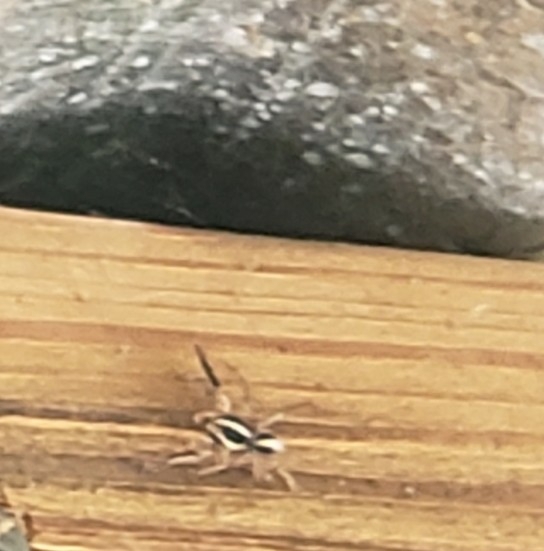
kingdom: Animalia
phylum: Arthropoda
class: Arachnida
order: Araneae
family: Salticidae
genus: Plexippus
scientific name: Plexippus paykulli
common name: Pantropical jumper
